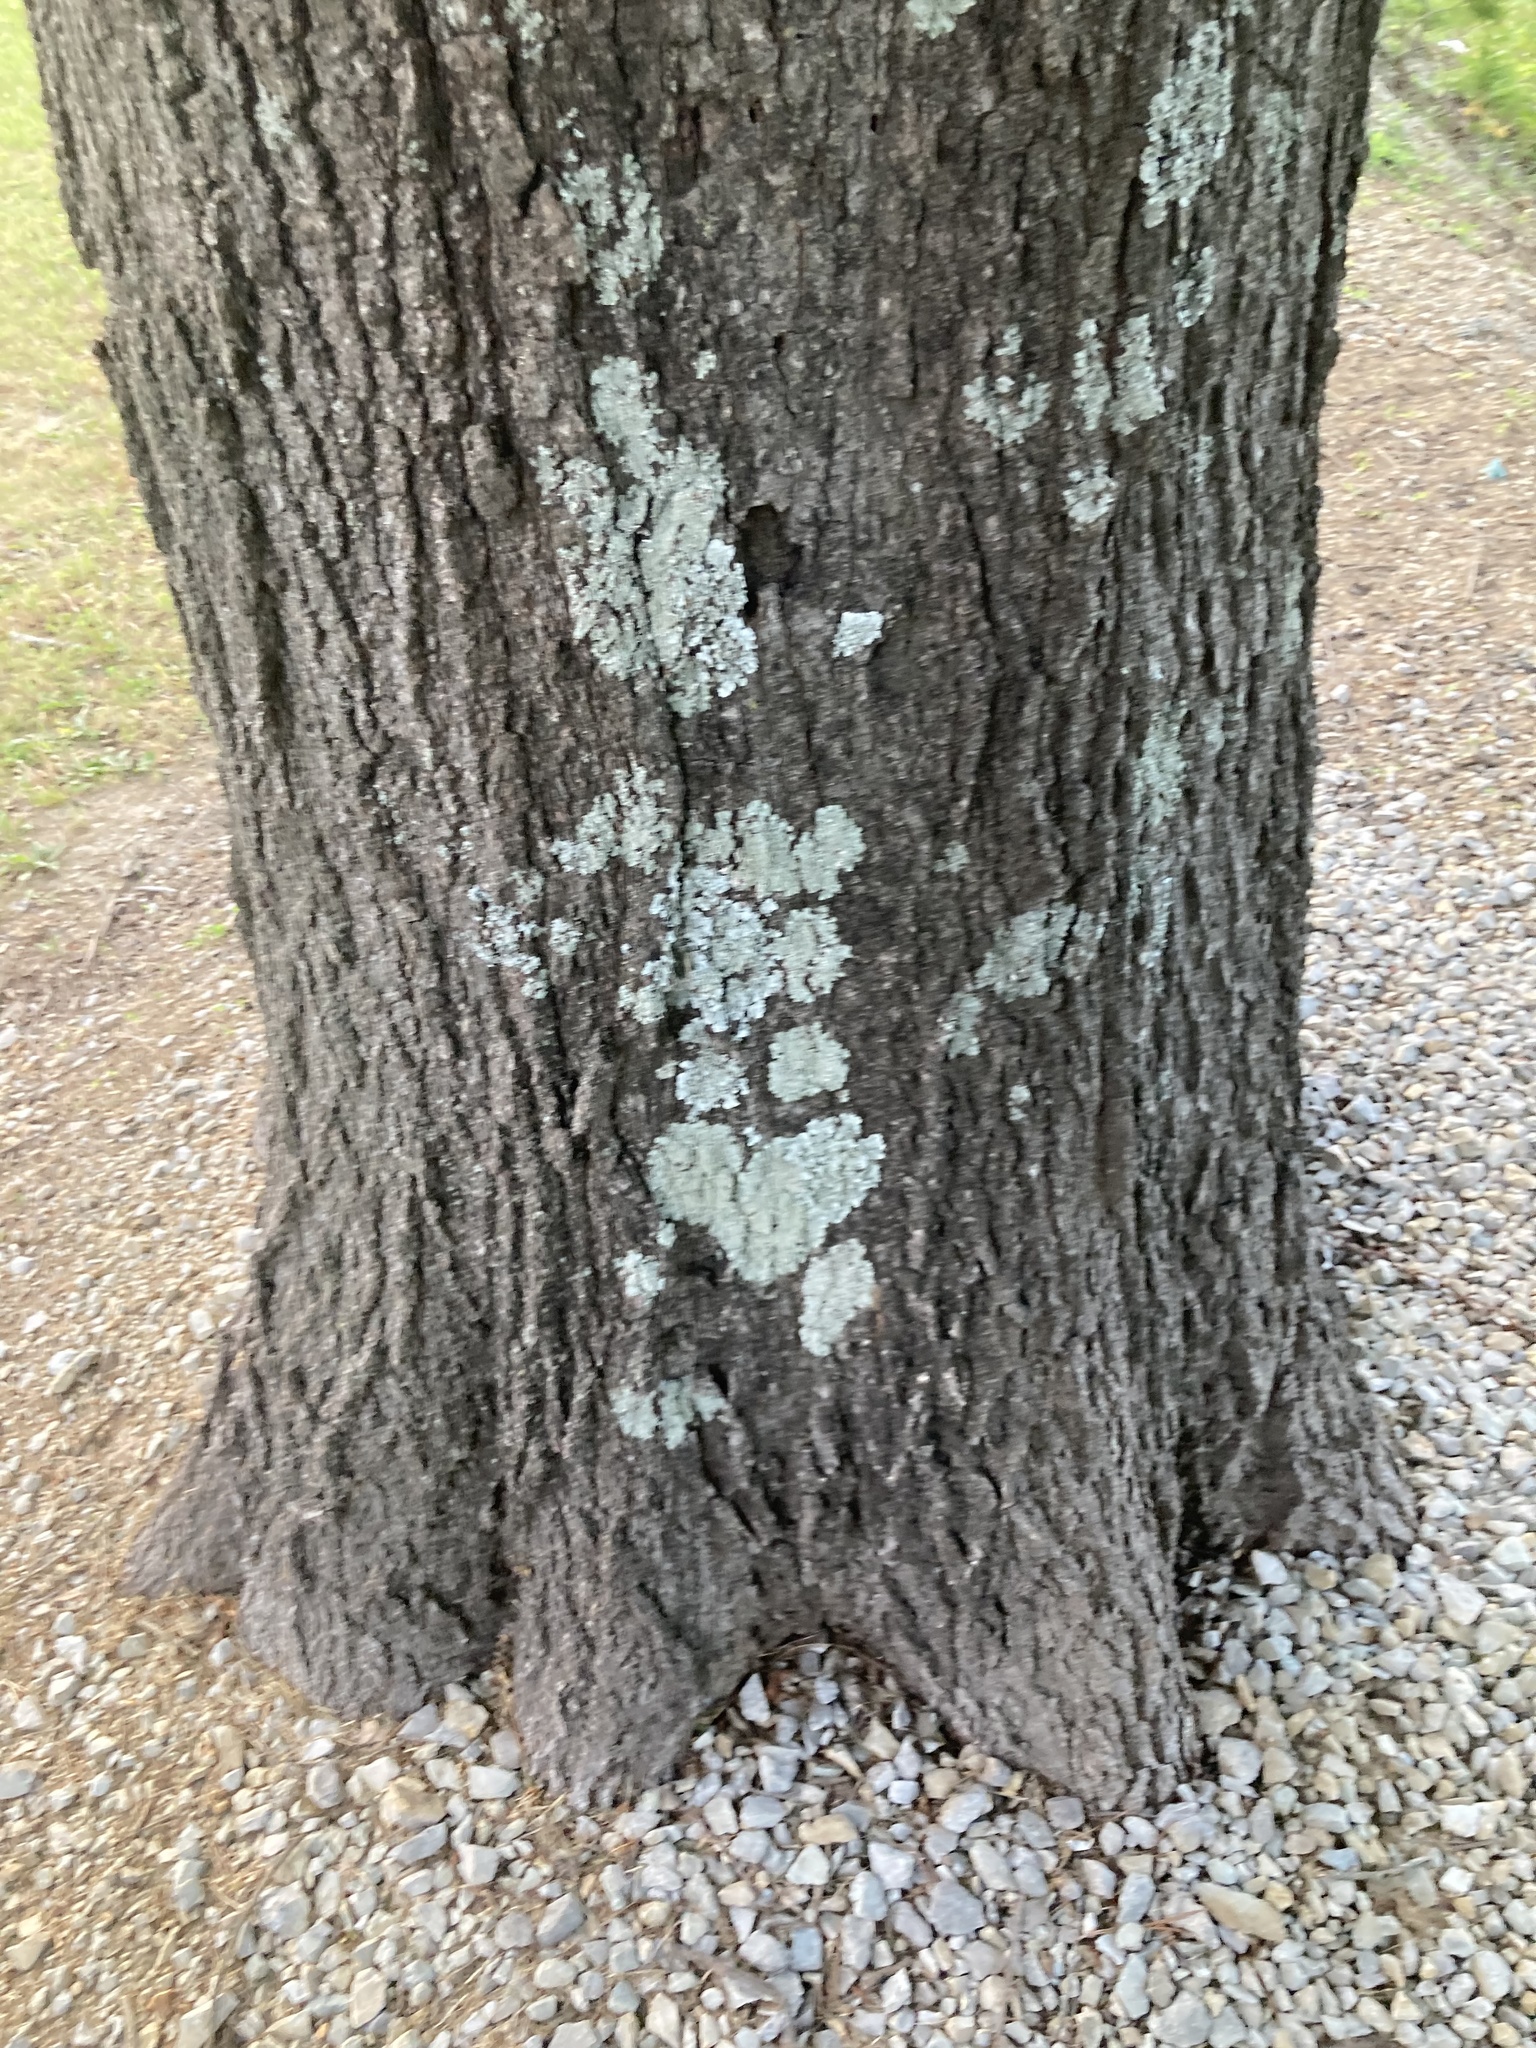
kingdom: Plantae
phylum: Tracheophyta
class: Magnoliopsida
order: Fagales
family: Fagaceae
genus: Quercus
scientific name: Quercus phellos
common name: Willow oak
